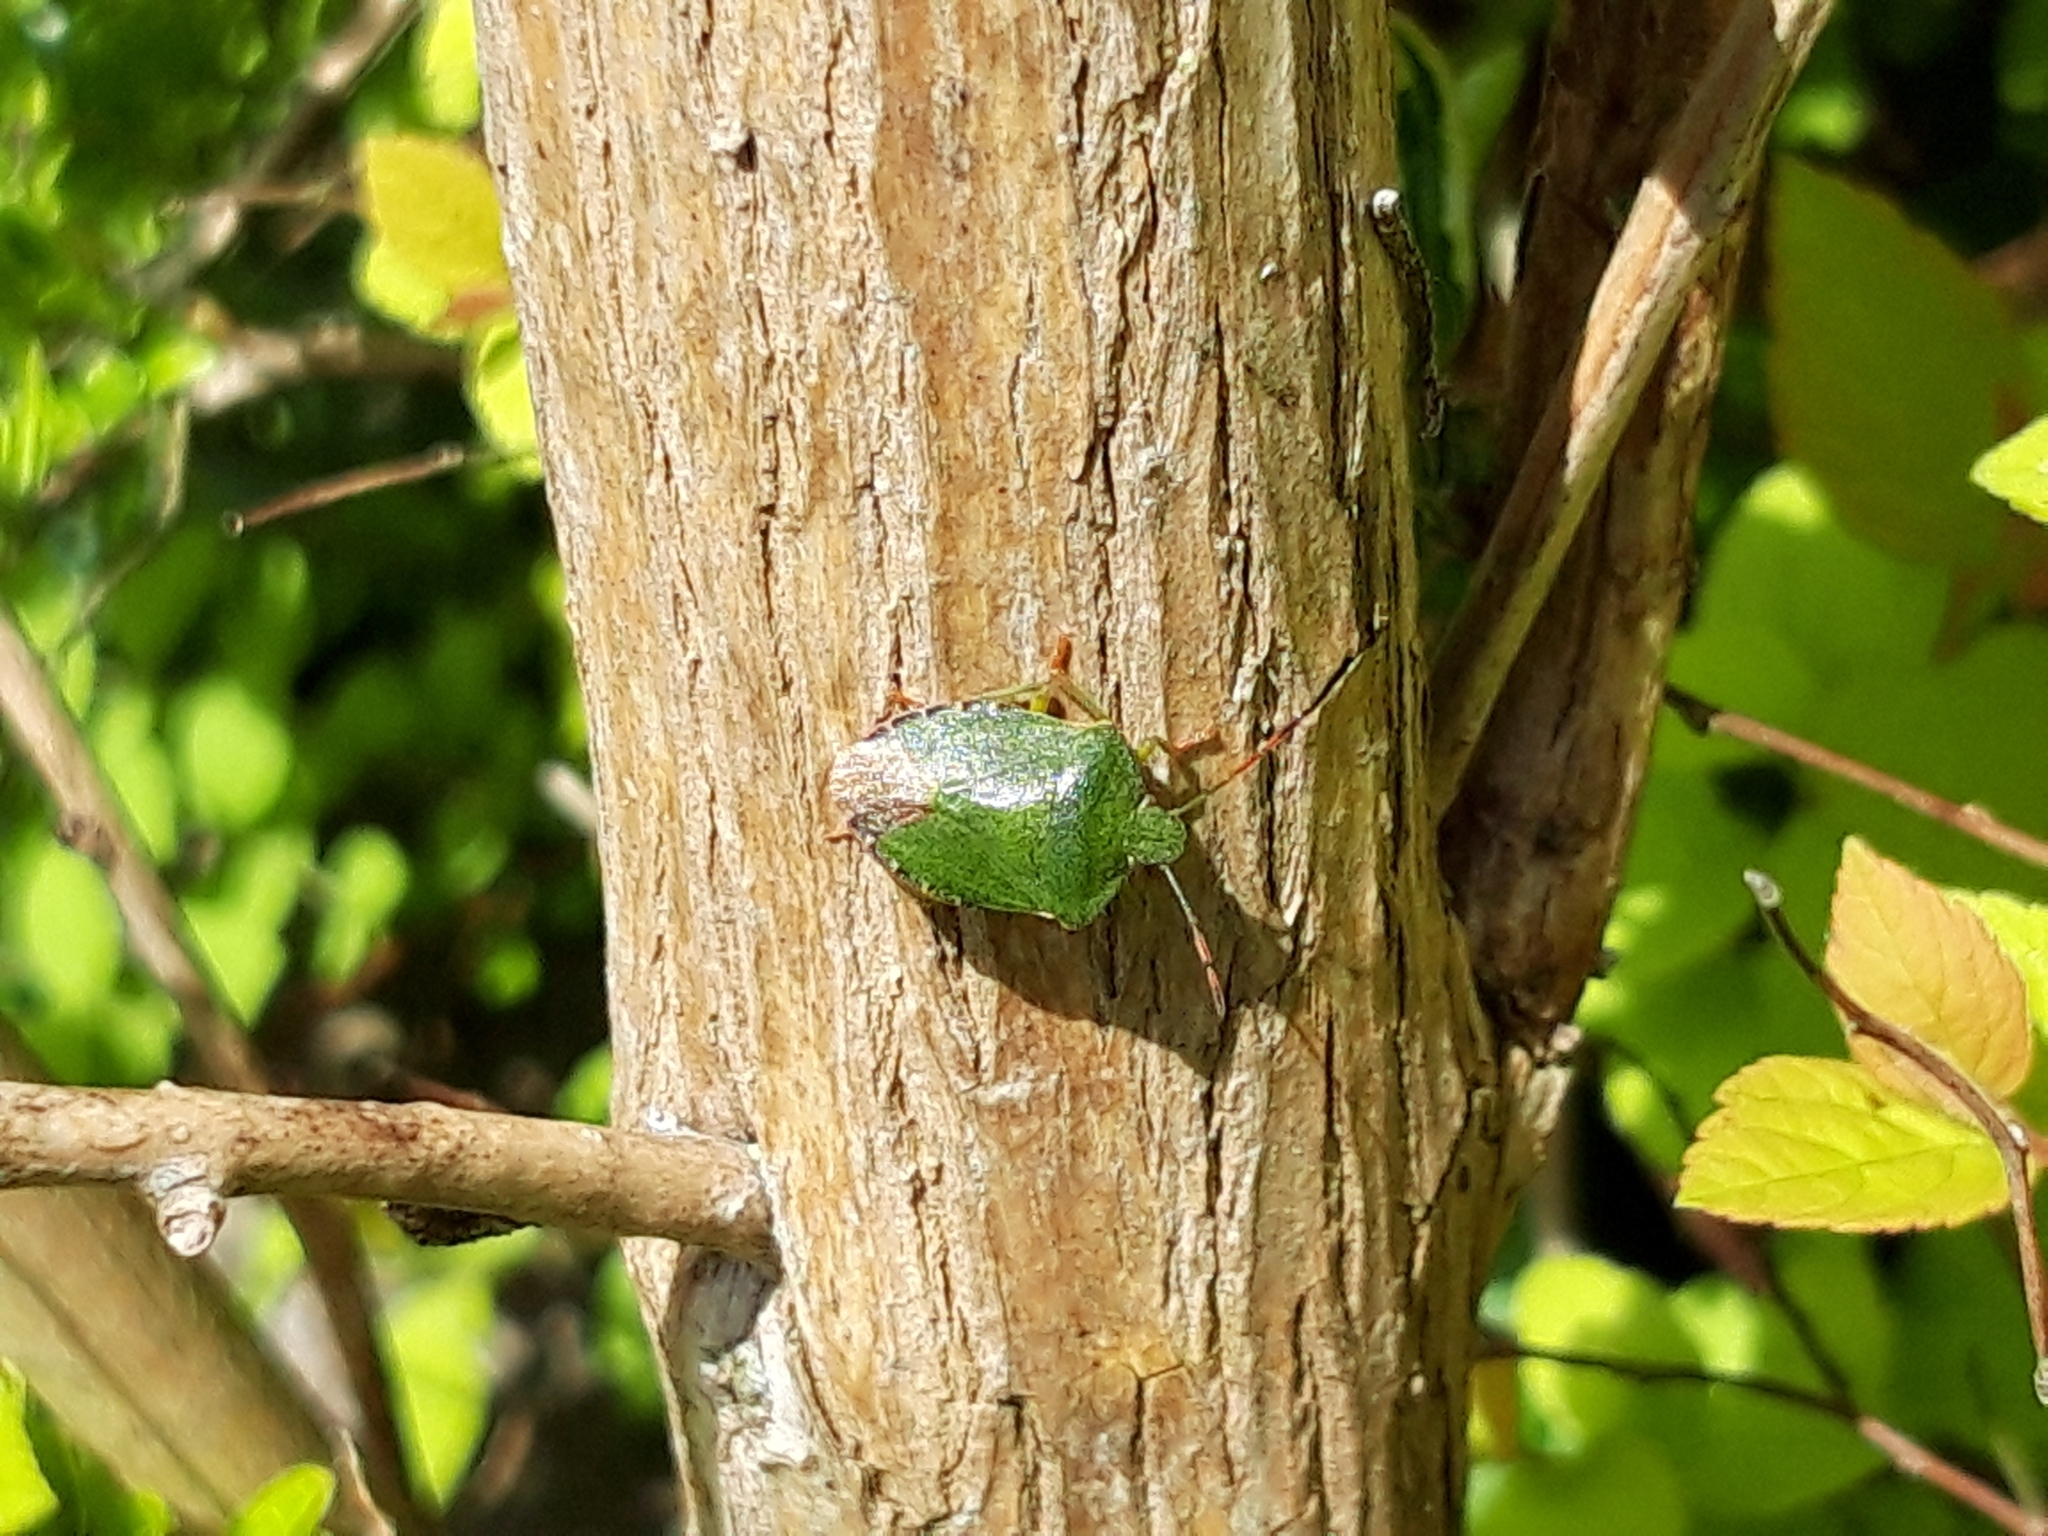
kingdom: Animalia
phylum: Arthropoda
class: Insecta
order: Hemiptera
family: Pentatomidae
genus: Palomena
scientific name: Palomena prasina
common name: Green shieldbug
